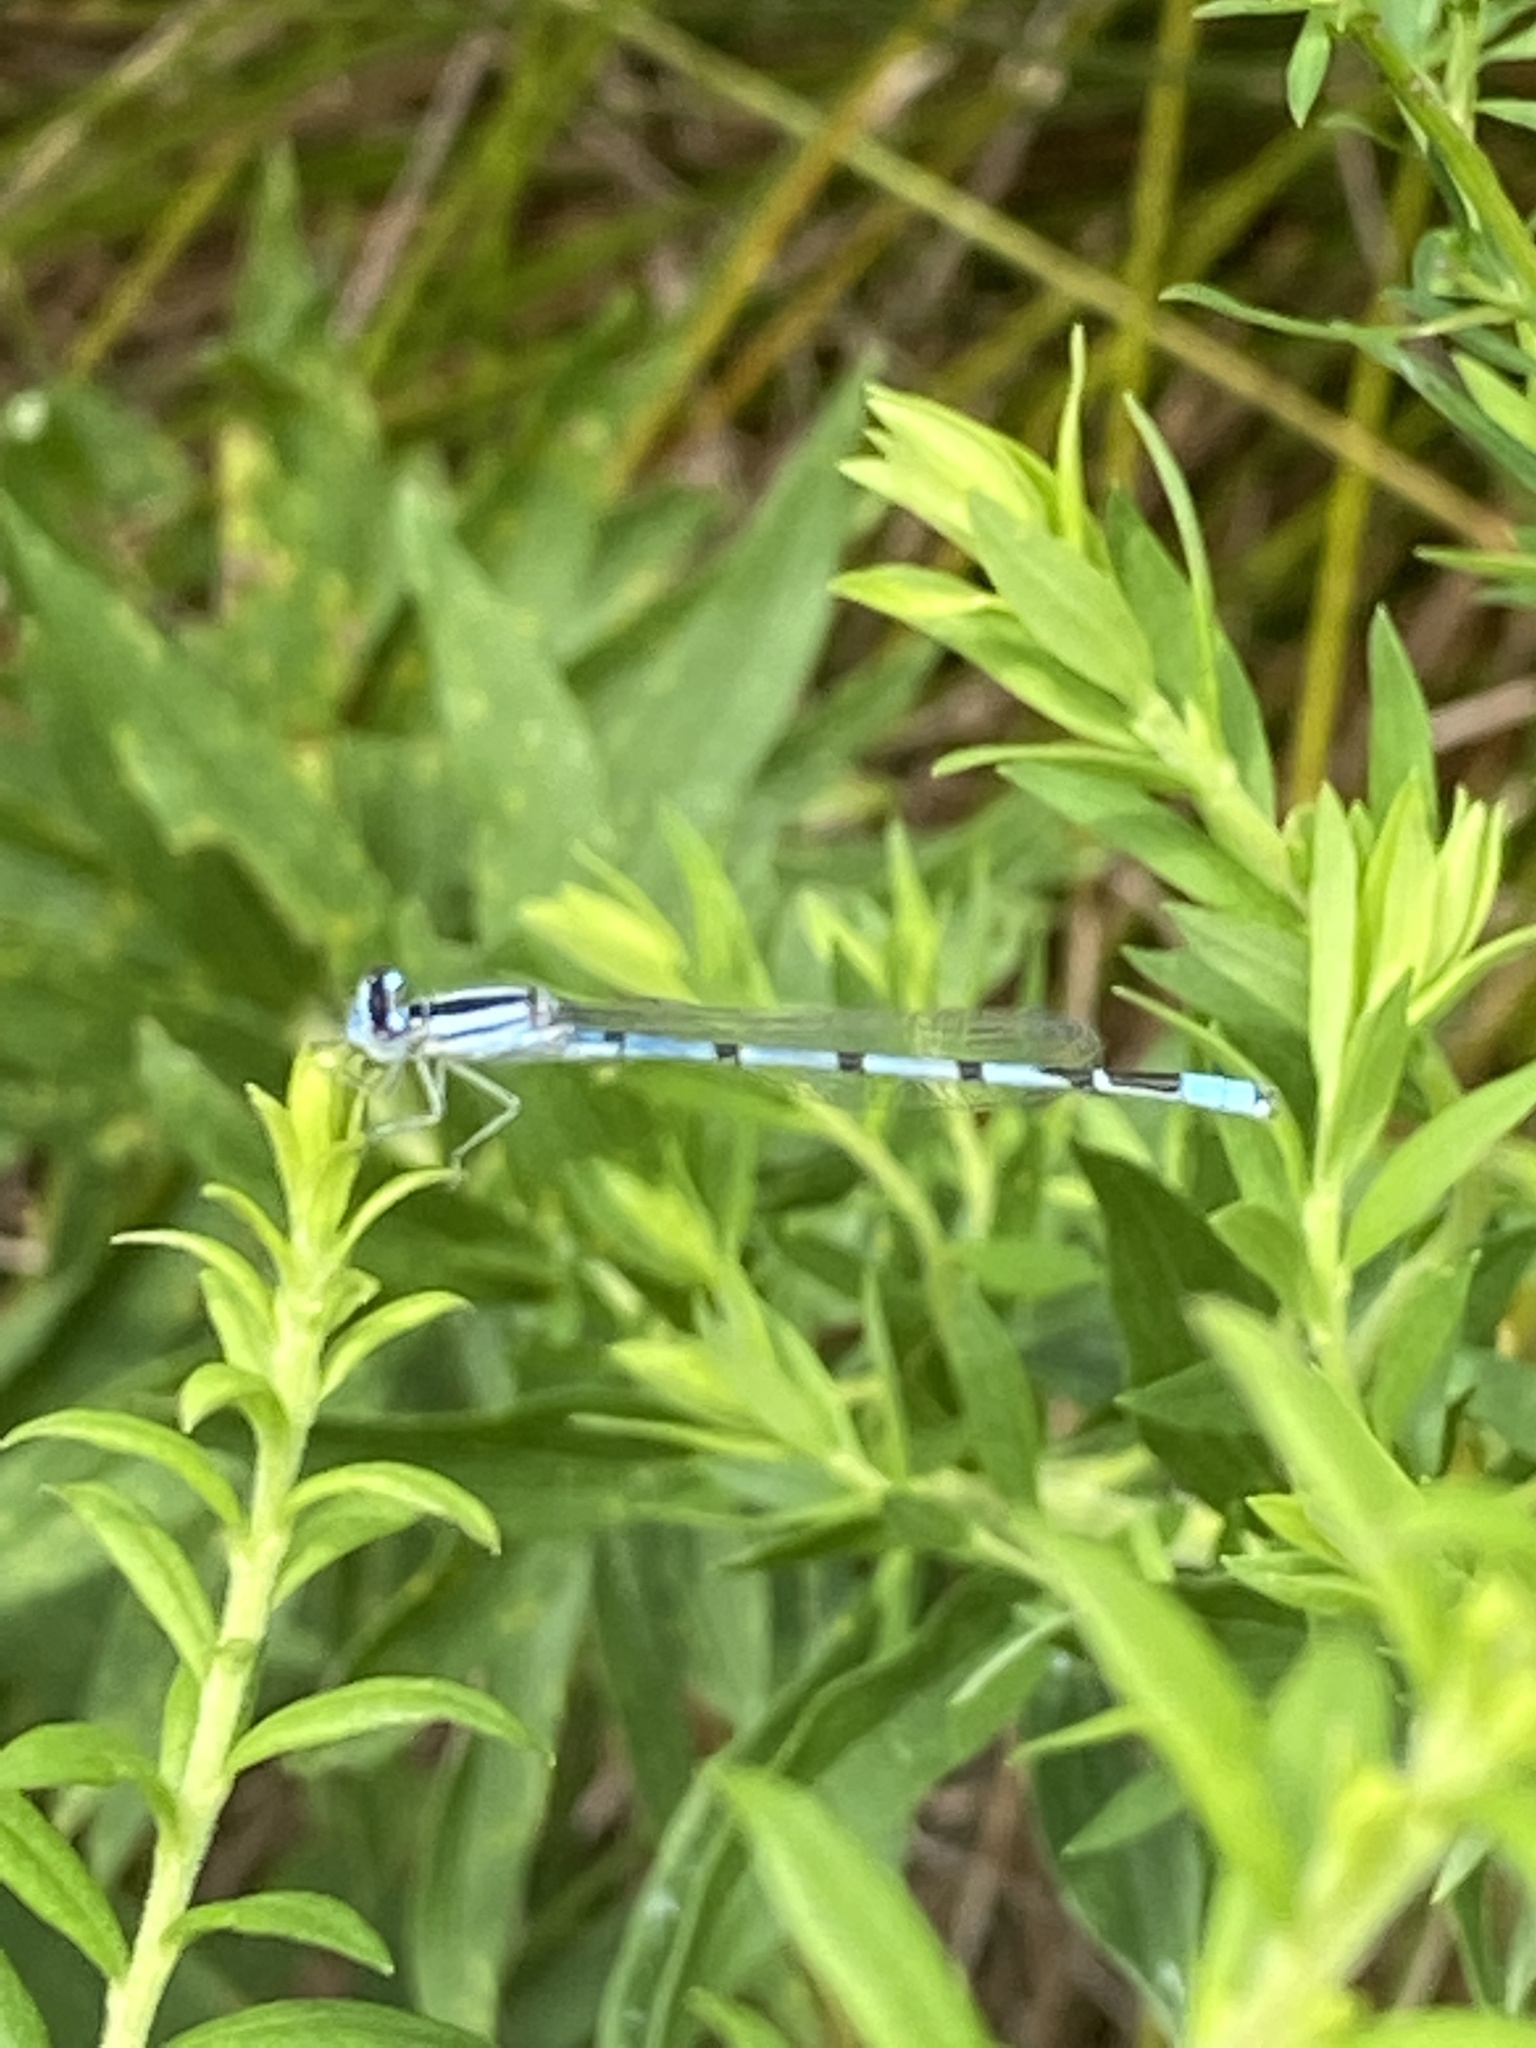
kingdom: Animalia
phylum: Arthropoda
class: Insecta
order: Odonata
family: Coenagrionidae
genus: Enallagma
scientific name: Enallagma civile
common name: Damselfly
